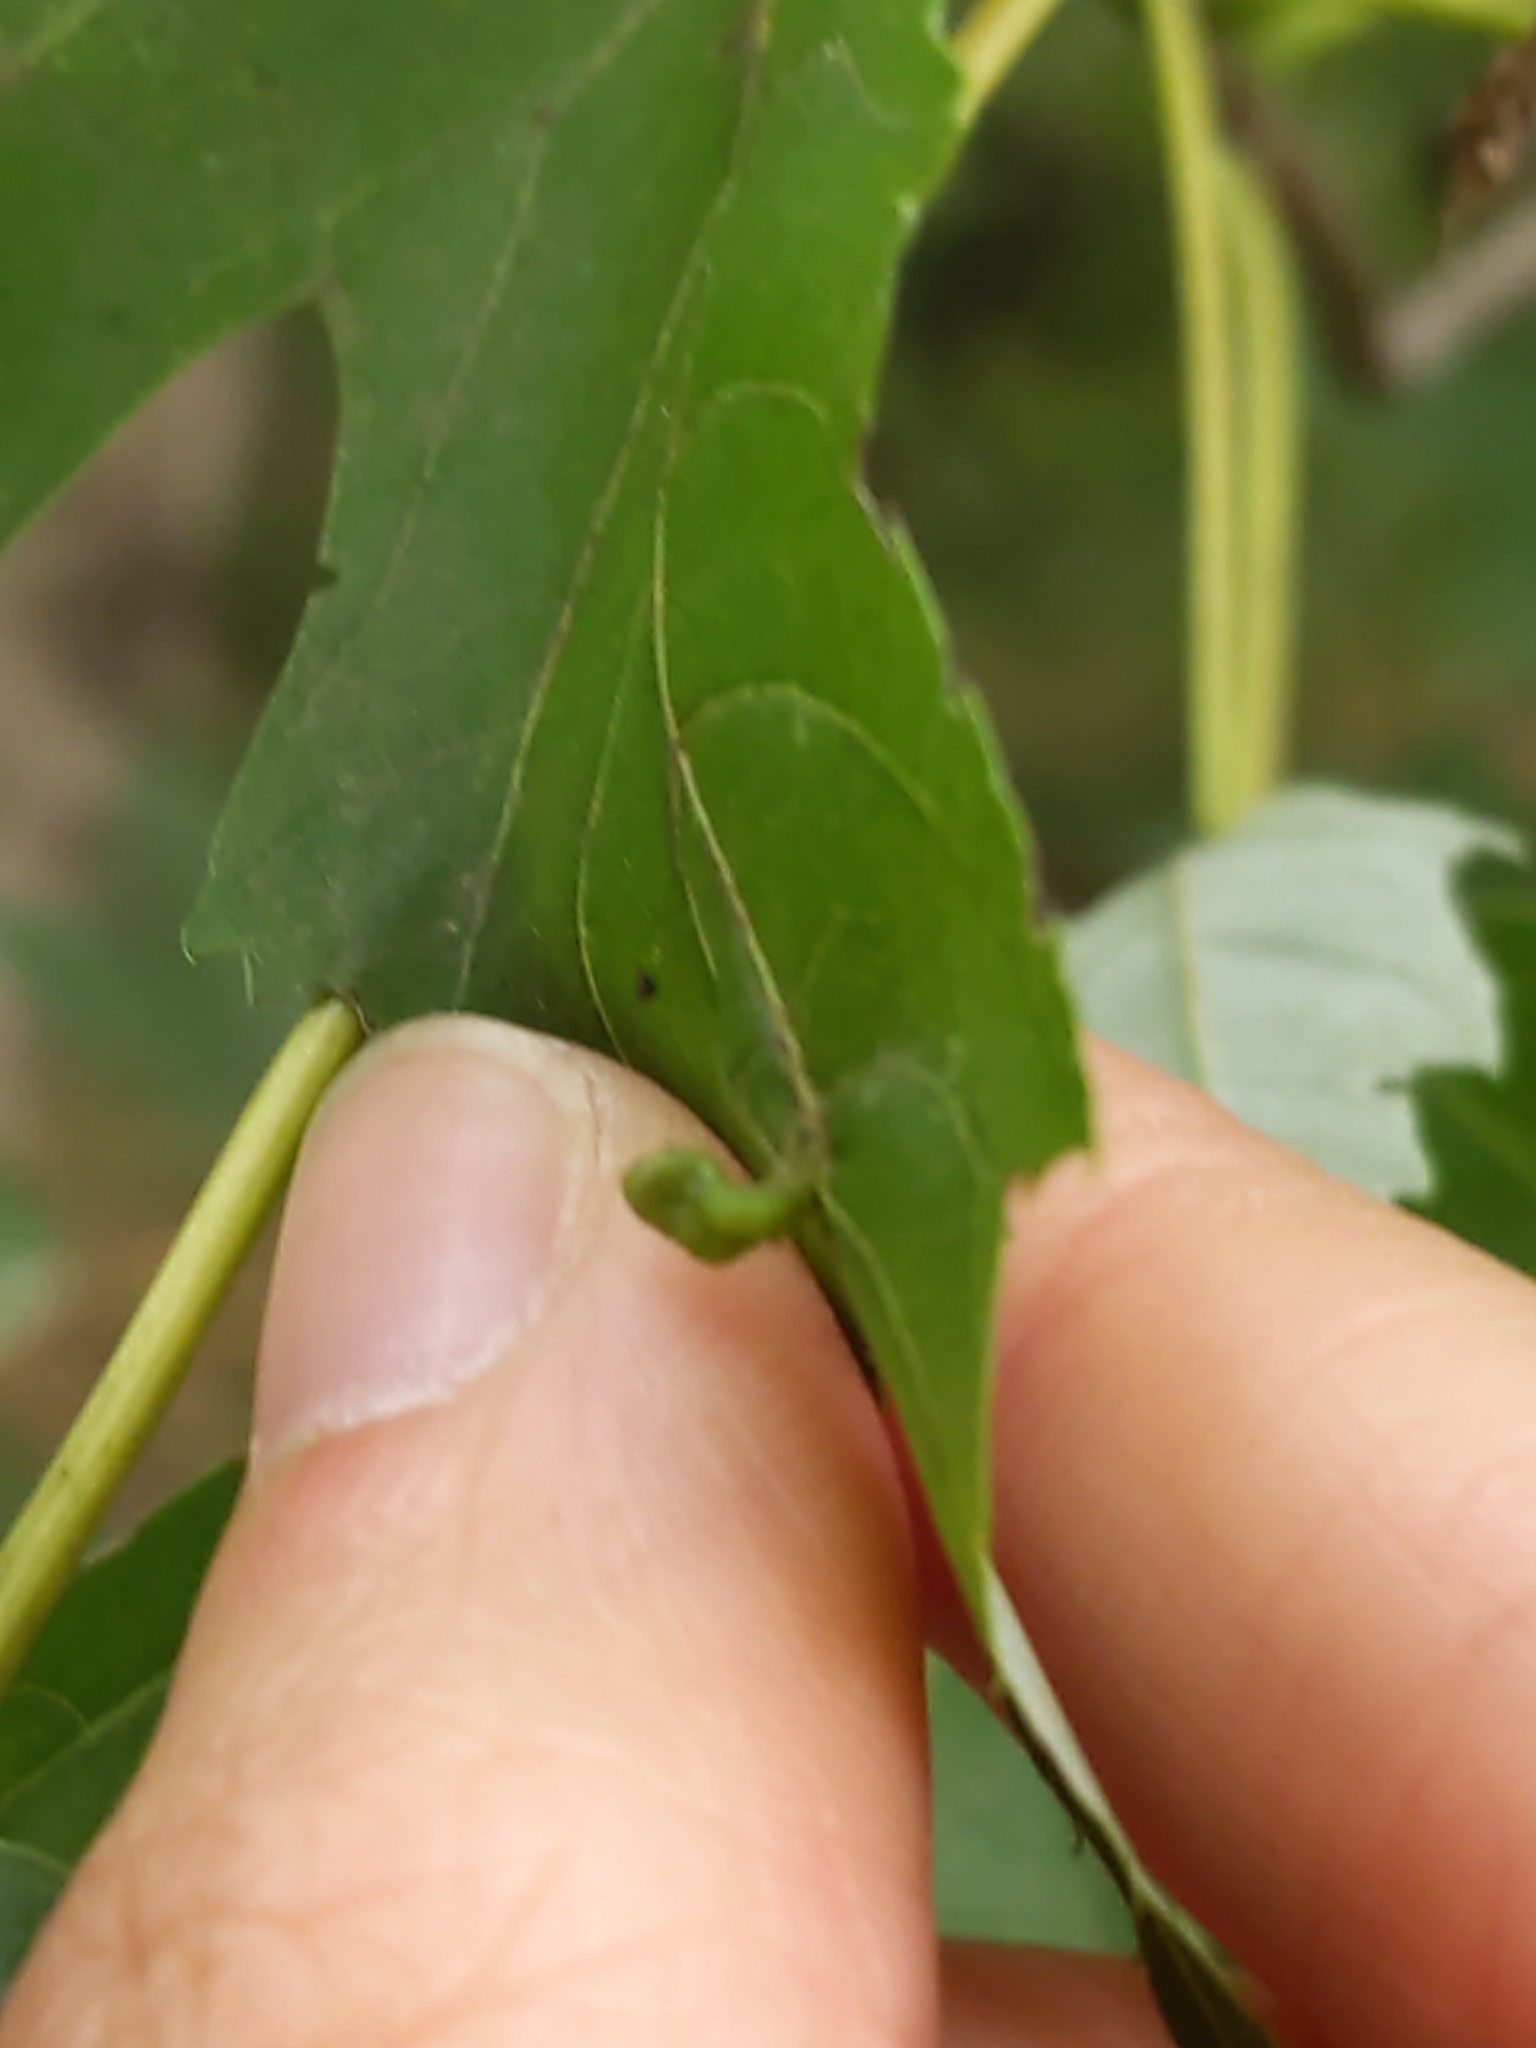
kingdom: Animalia
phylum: Arthropoda
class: Arachnida
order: Trombidiformes
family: Eriophyidae
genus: Vasates
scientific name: Vasates quadripedes
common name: Maple bladder gall mite
